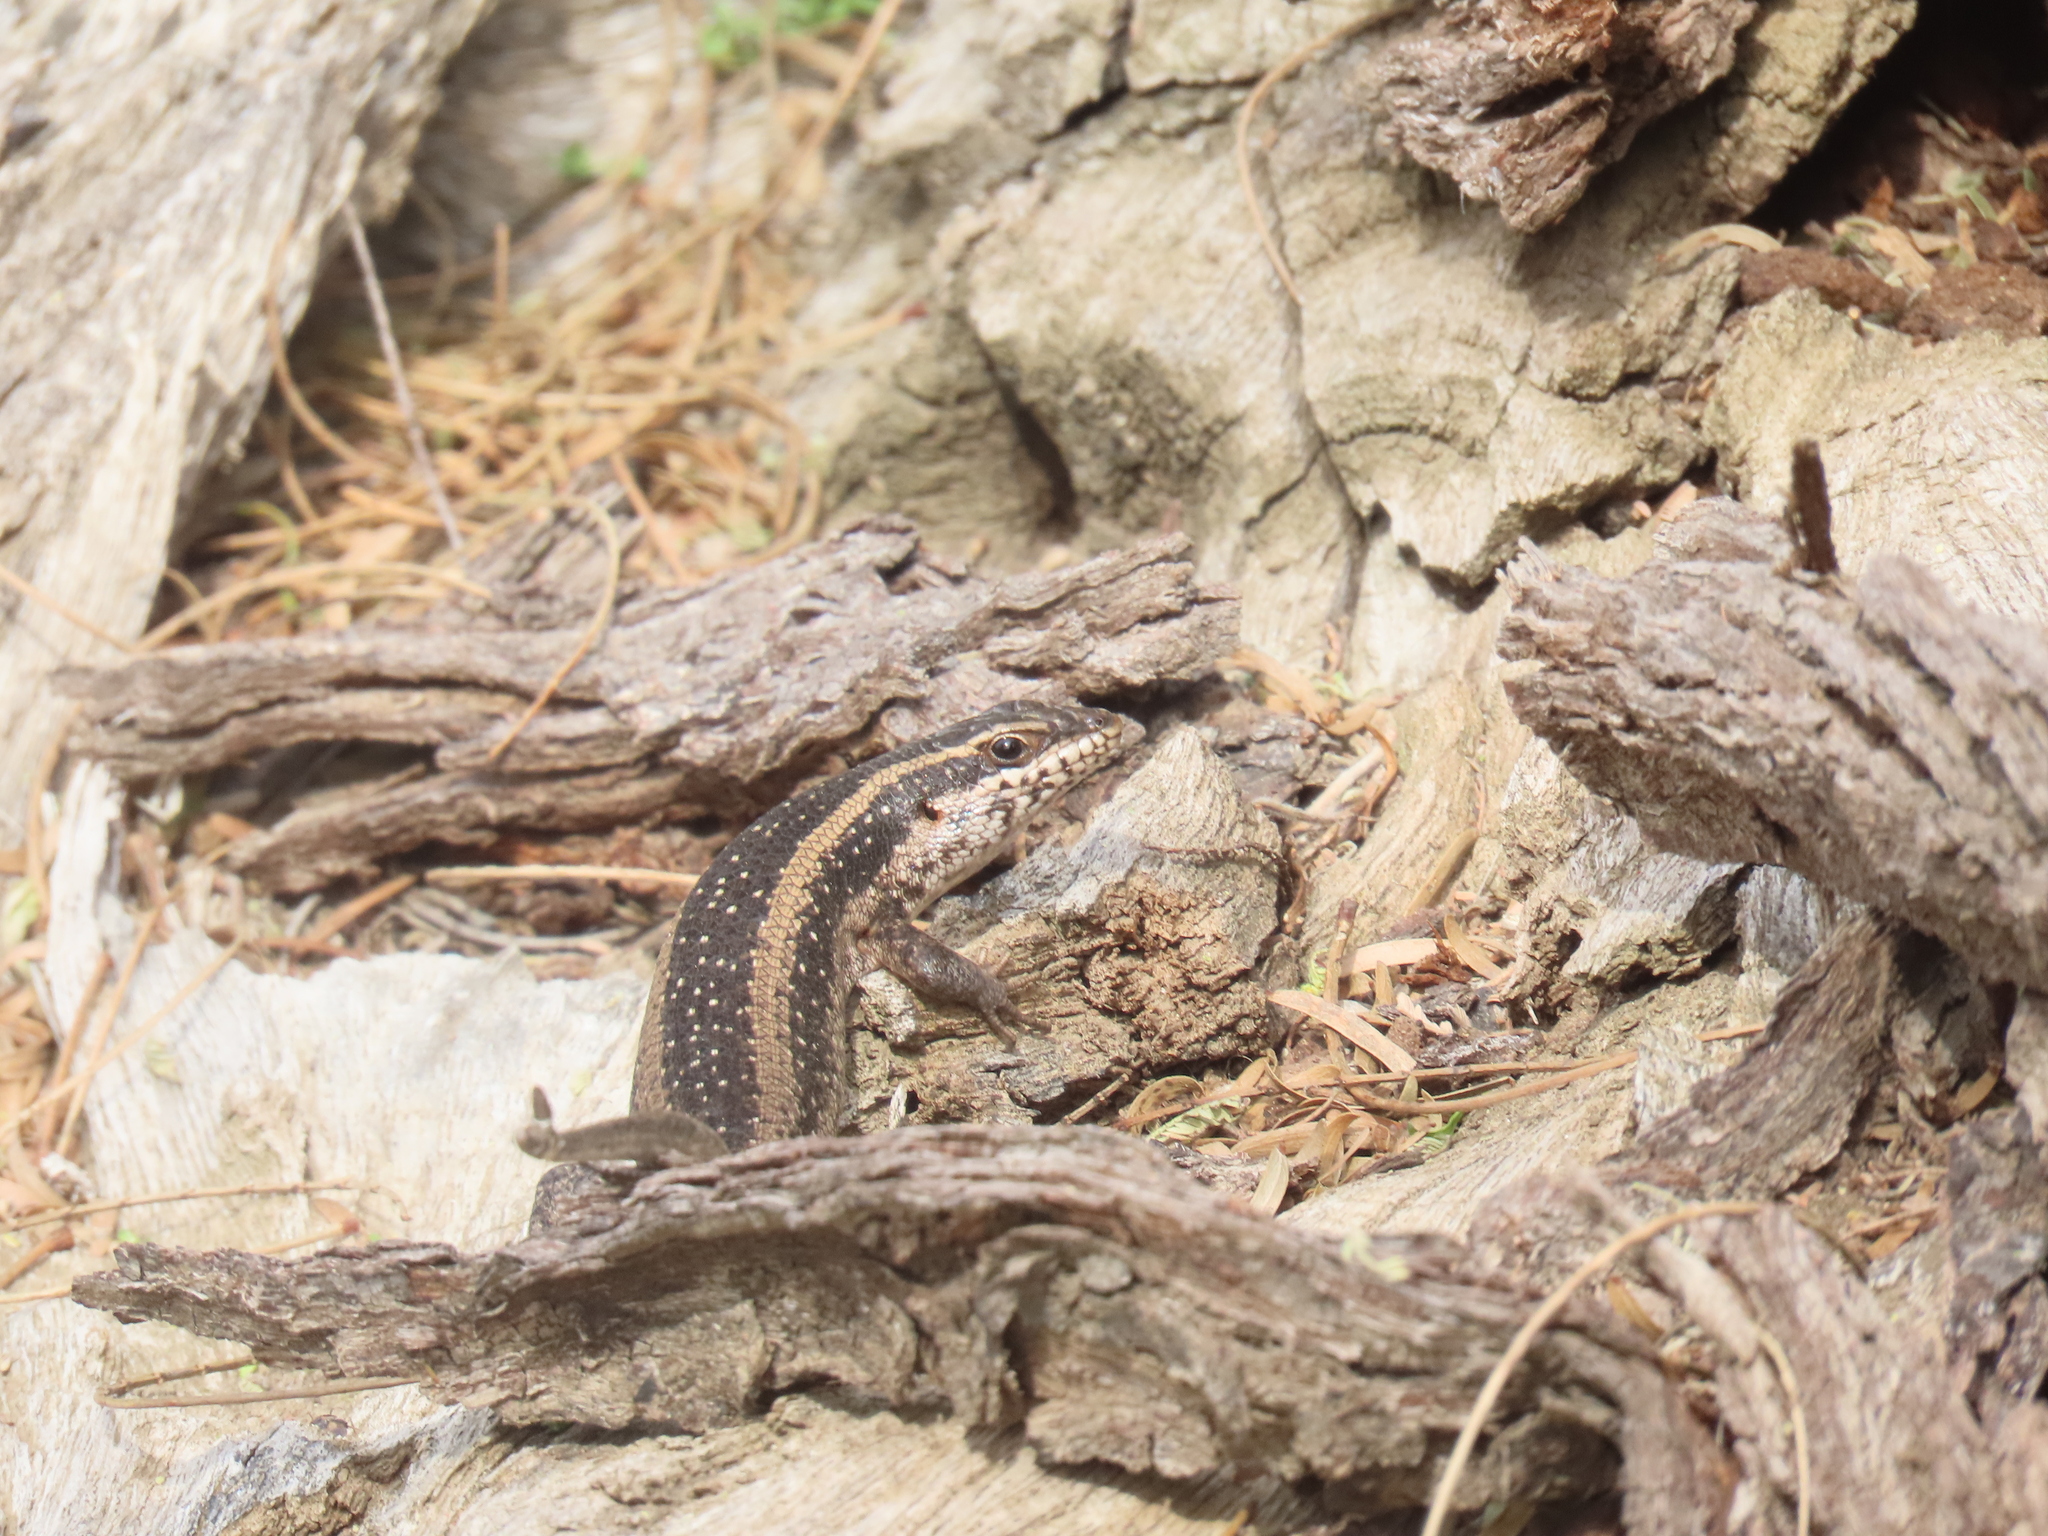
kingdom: Animalia
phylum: Chordata
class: Squamata
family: Scincidae
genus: Trachylepis
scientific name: Trachylepis spilogaster
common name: Kalahari tree skink
